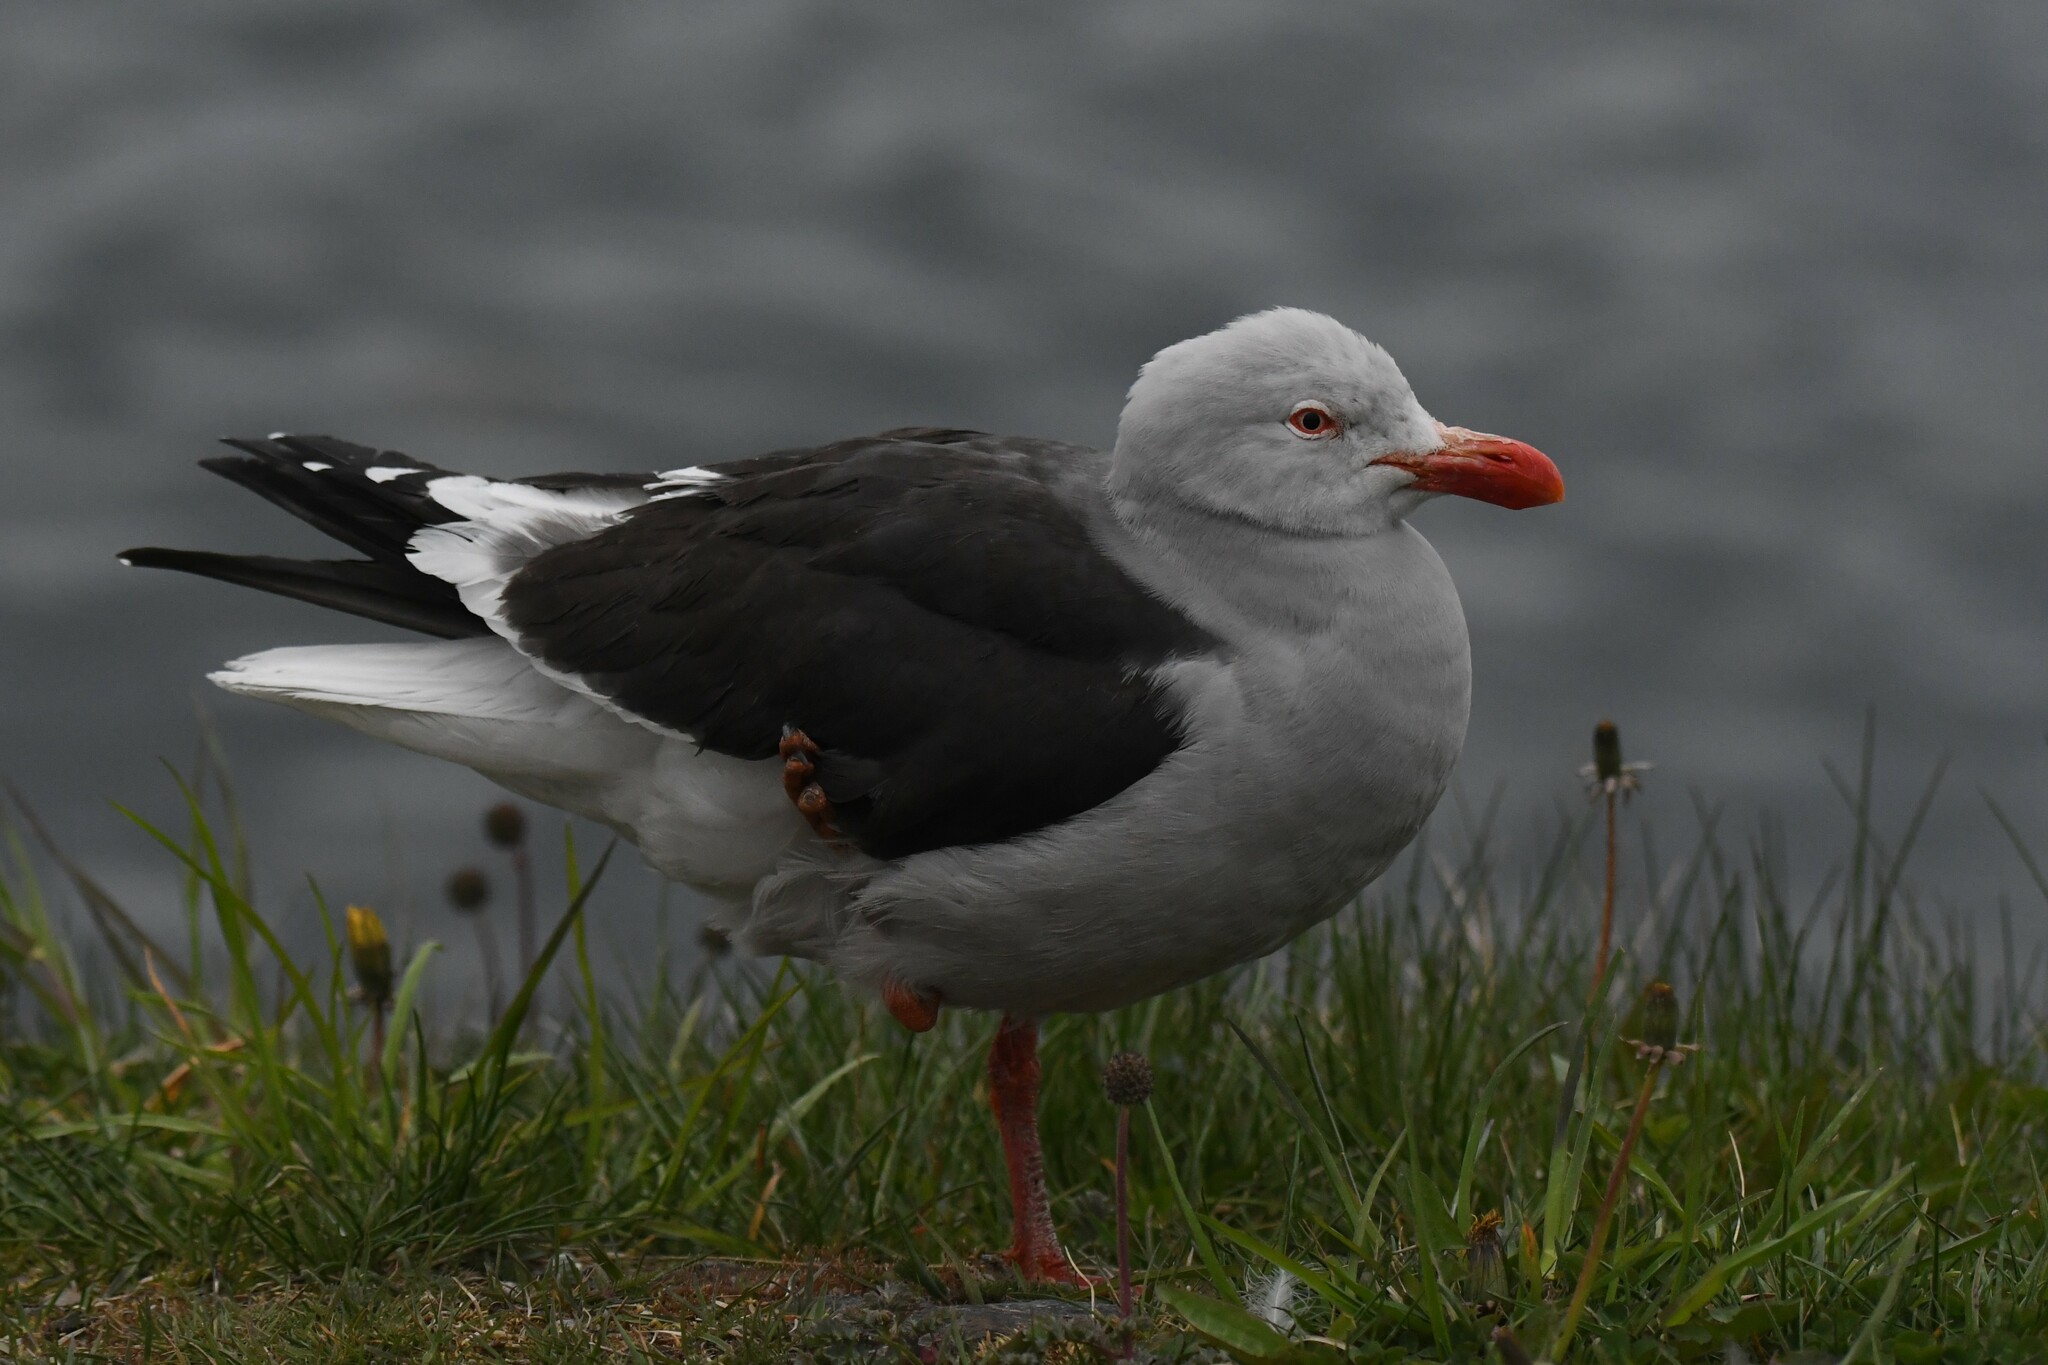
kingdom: Animalia
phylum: Chordata
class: Aves
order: Charadriiformes
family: Laridae
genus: Leucophaeus
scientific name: Leucophaeus scoresbii
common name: Dolphin gull
